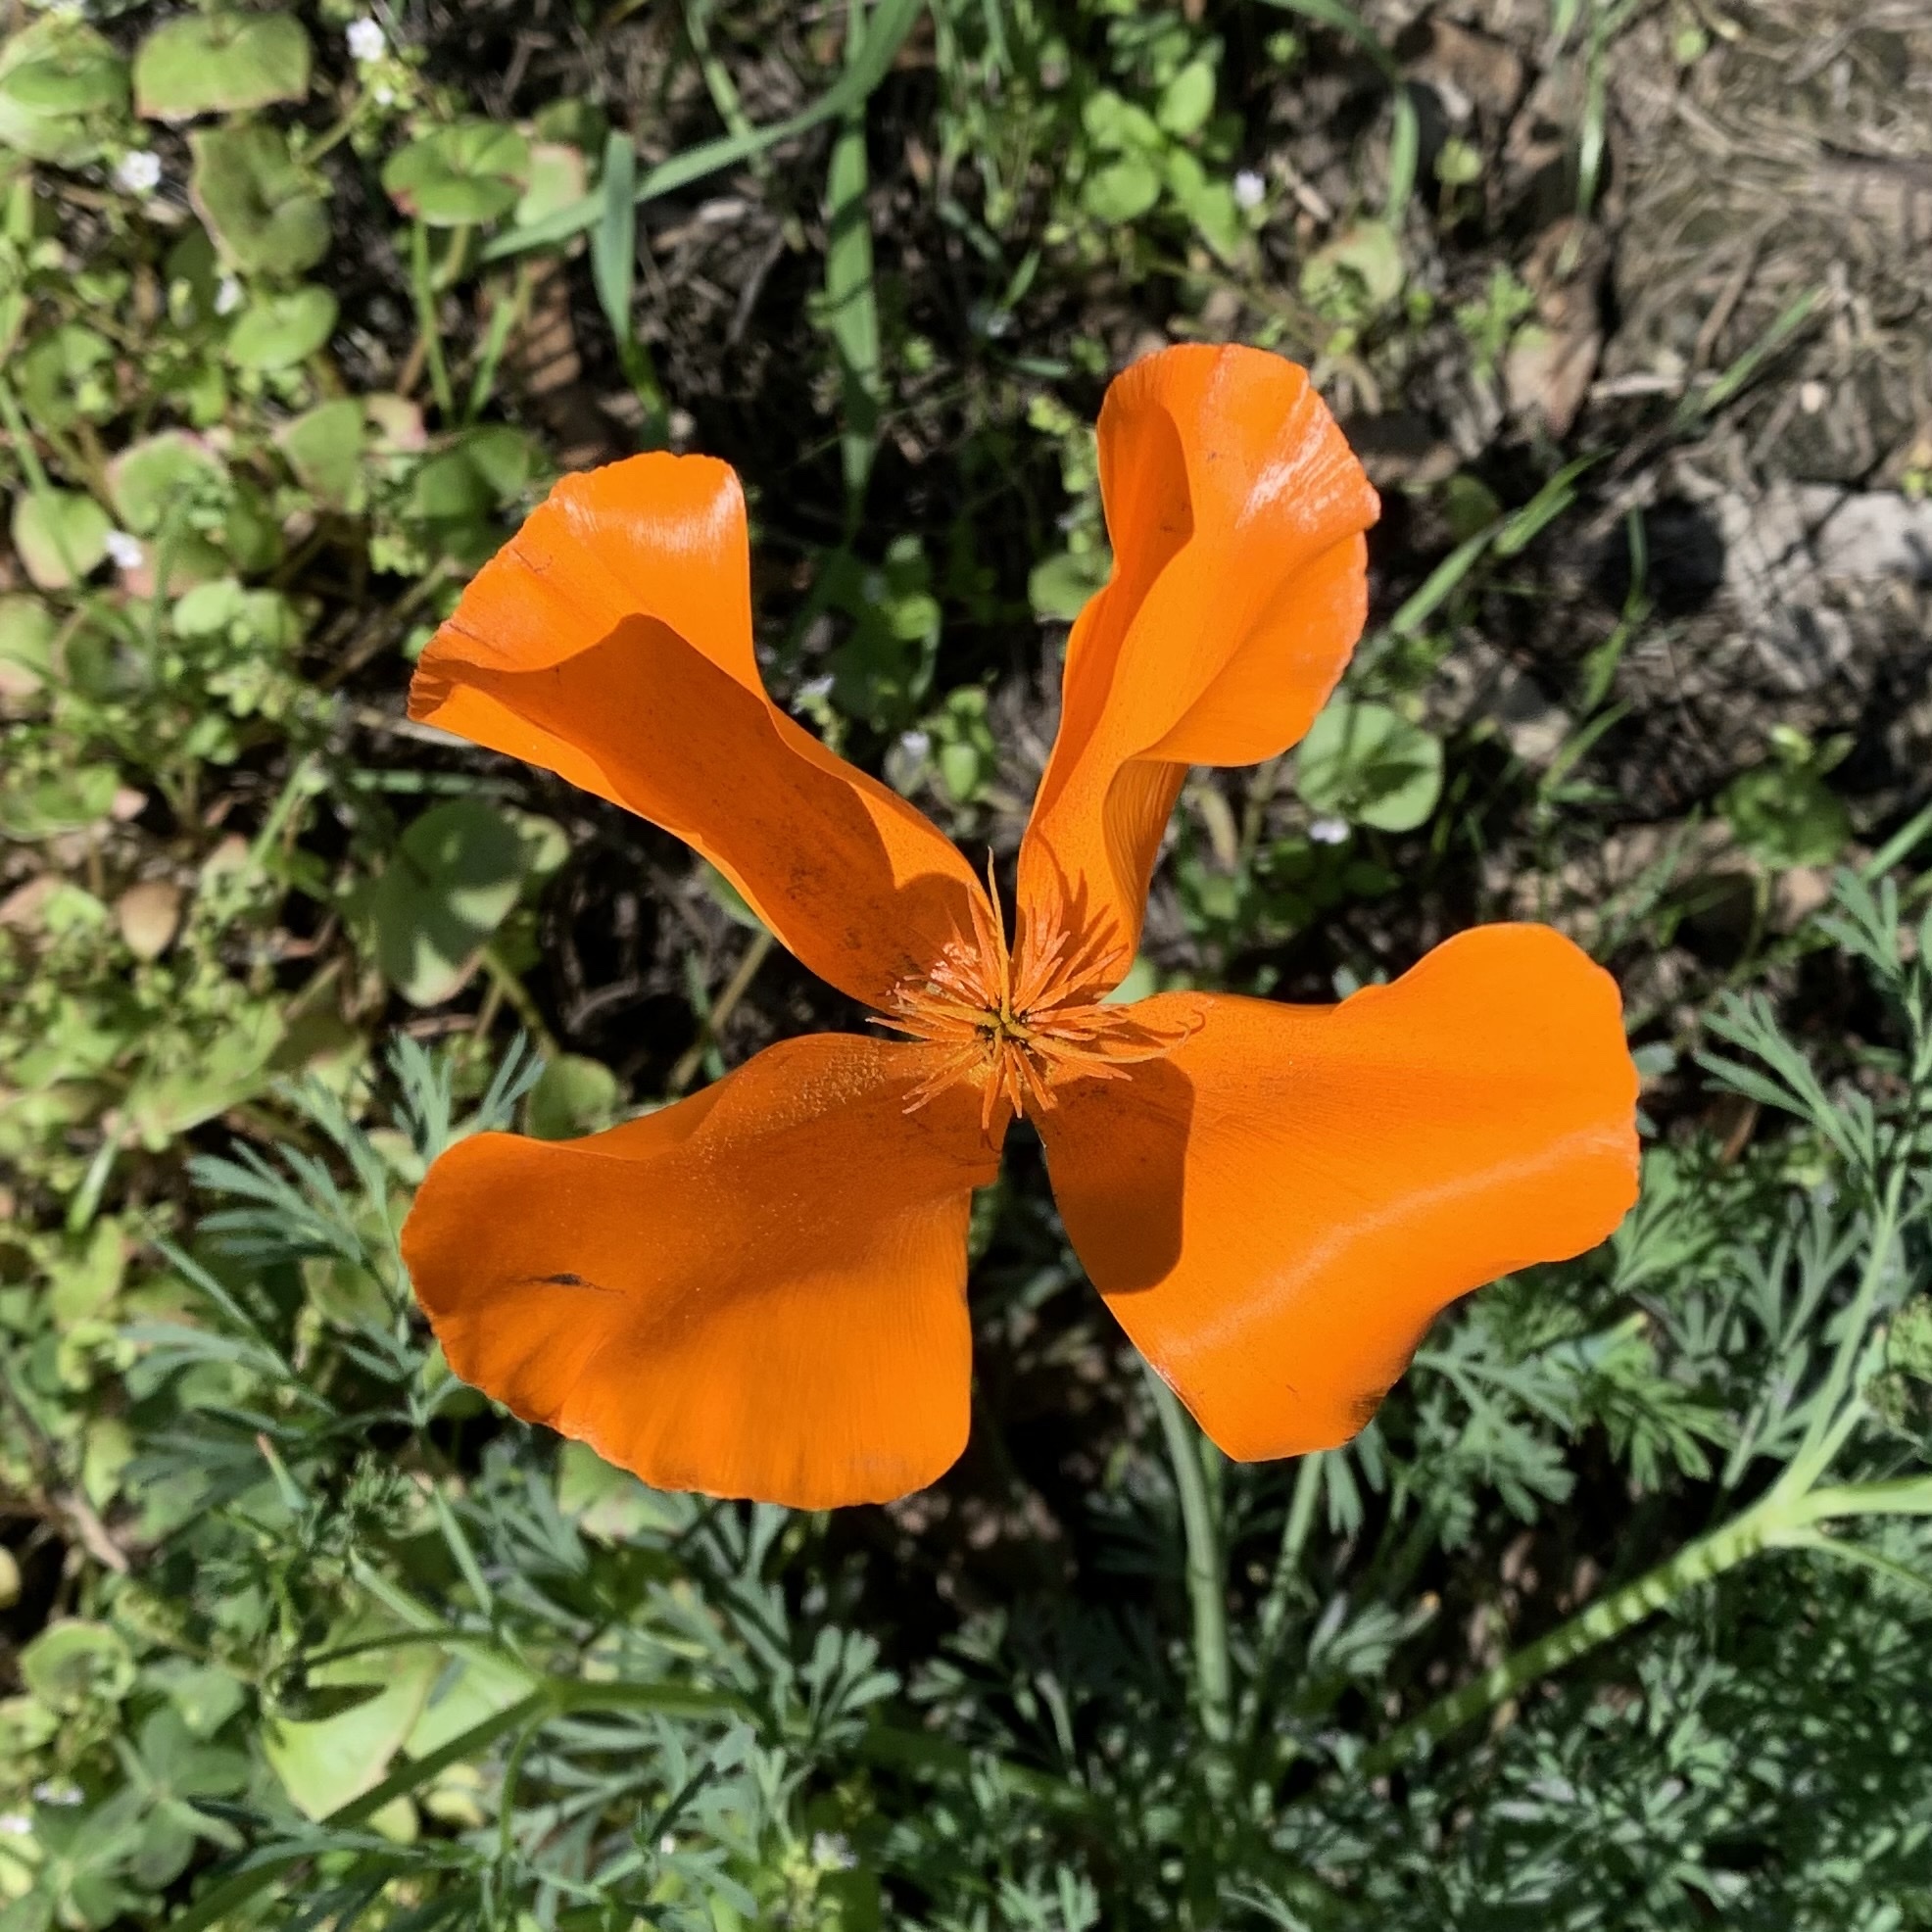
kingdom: Plantae
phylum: Tracheophyta
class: Magnoliopsida
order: Ranunculales
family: Papaveraceae
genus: Eschscholzia
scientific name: Eschscholzia californica
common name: California poppy
